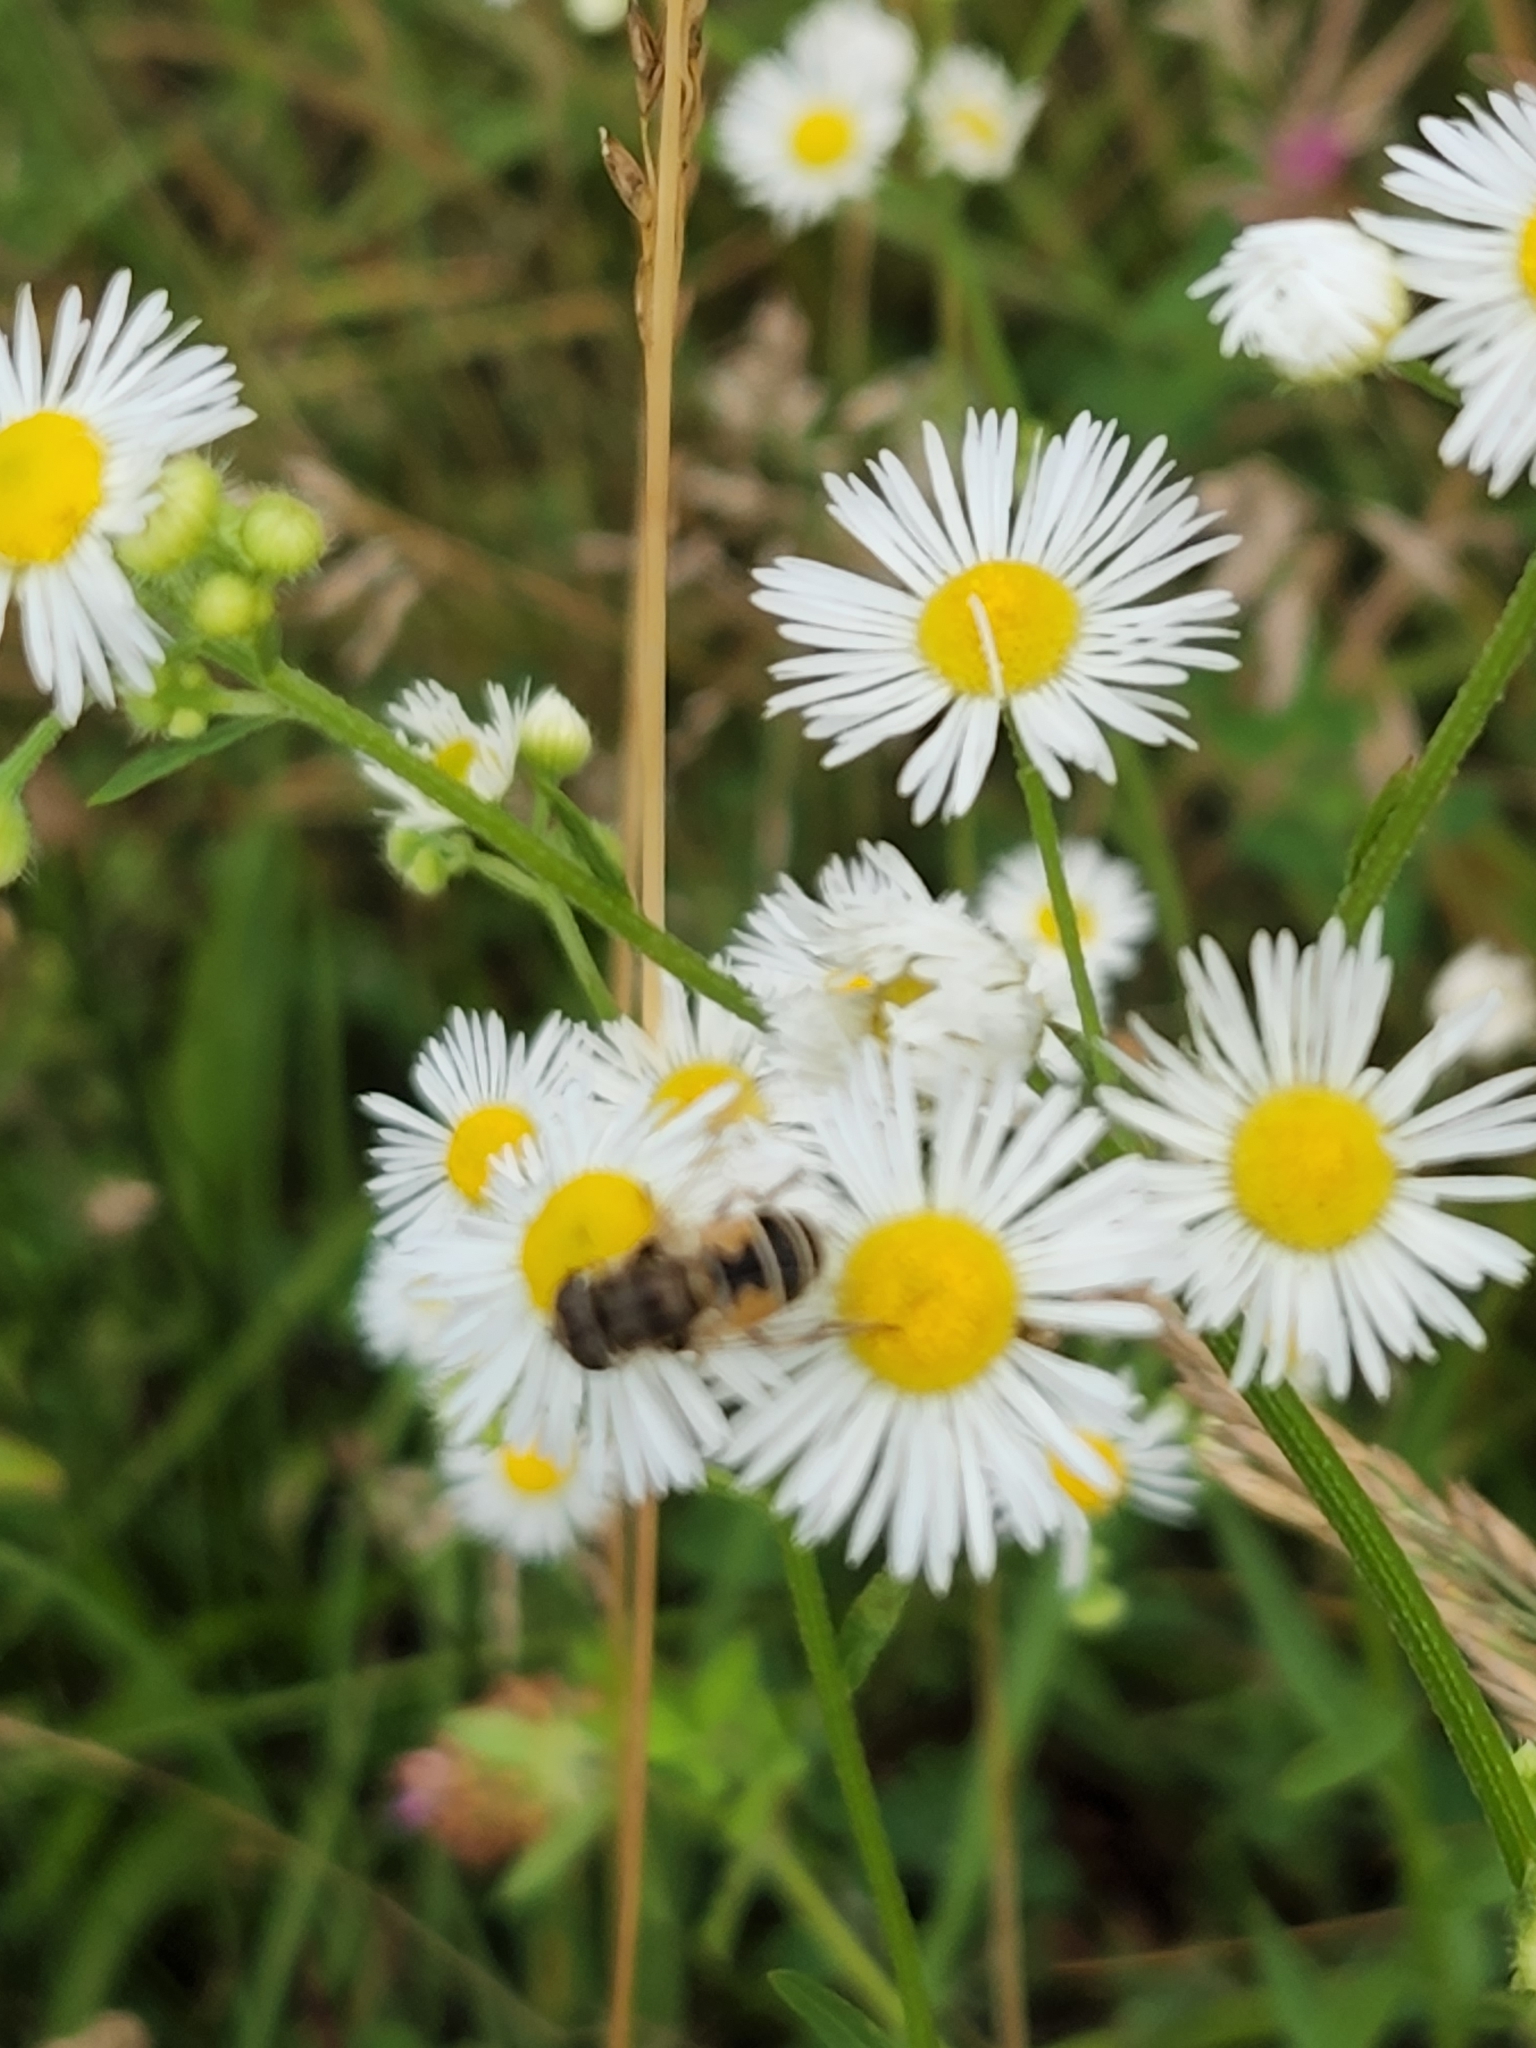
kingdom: Animalia
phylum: Arthropoda
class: Insecta
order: Diptera
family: Syrphidae
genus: Eristalis
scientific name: Eristalis arbustorum
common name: Hover fly
